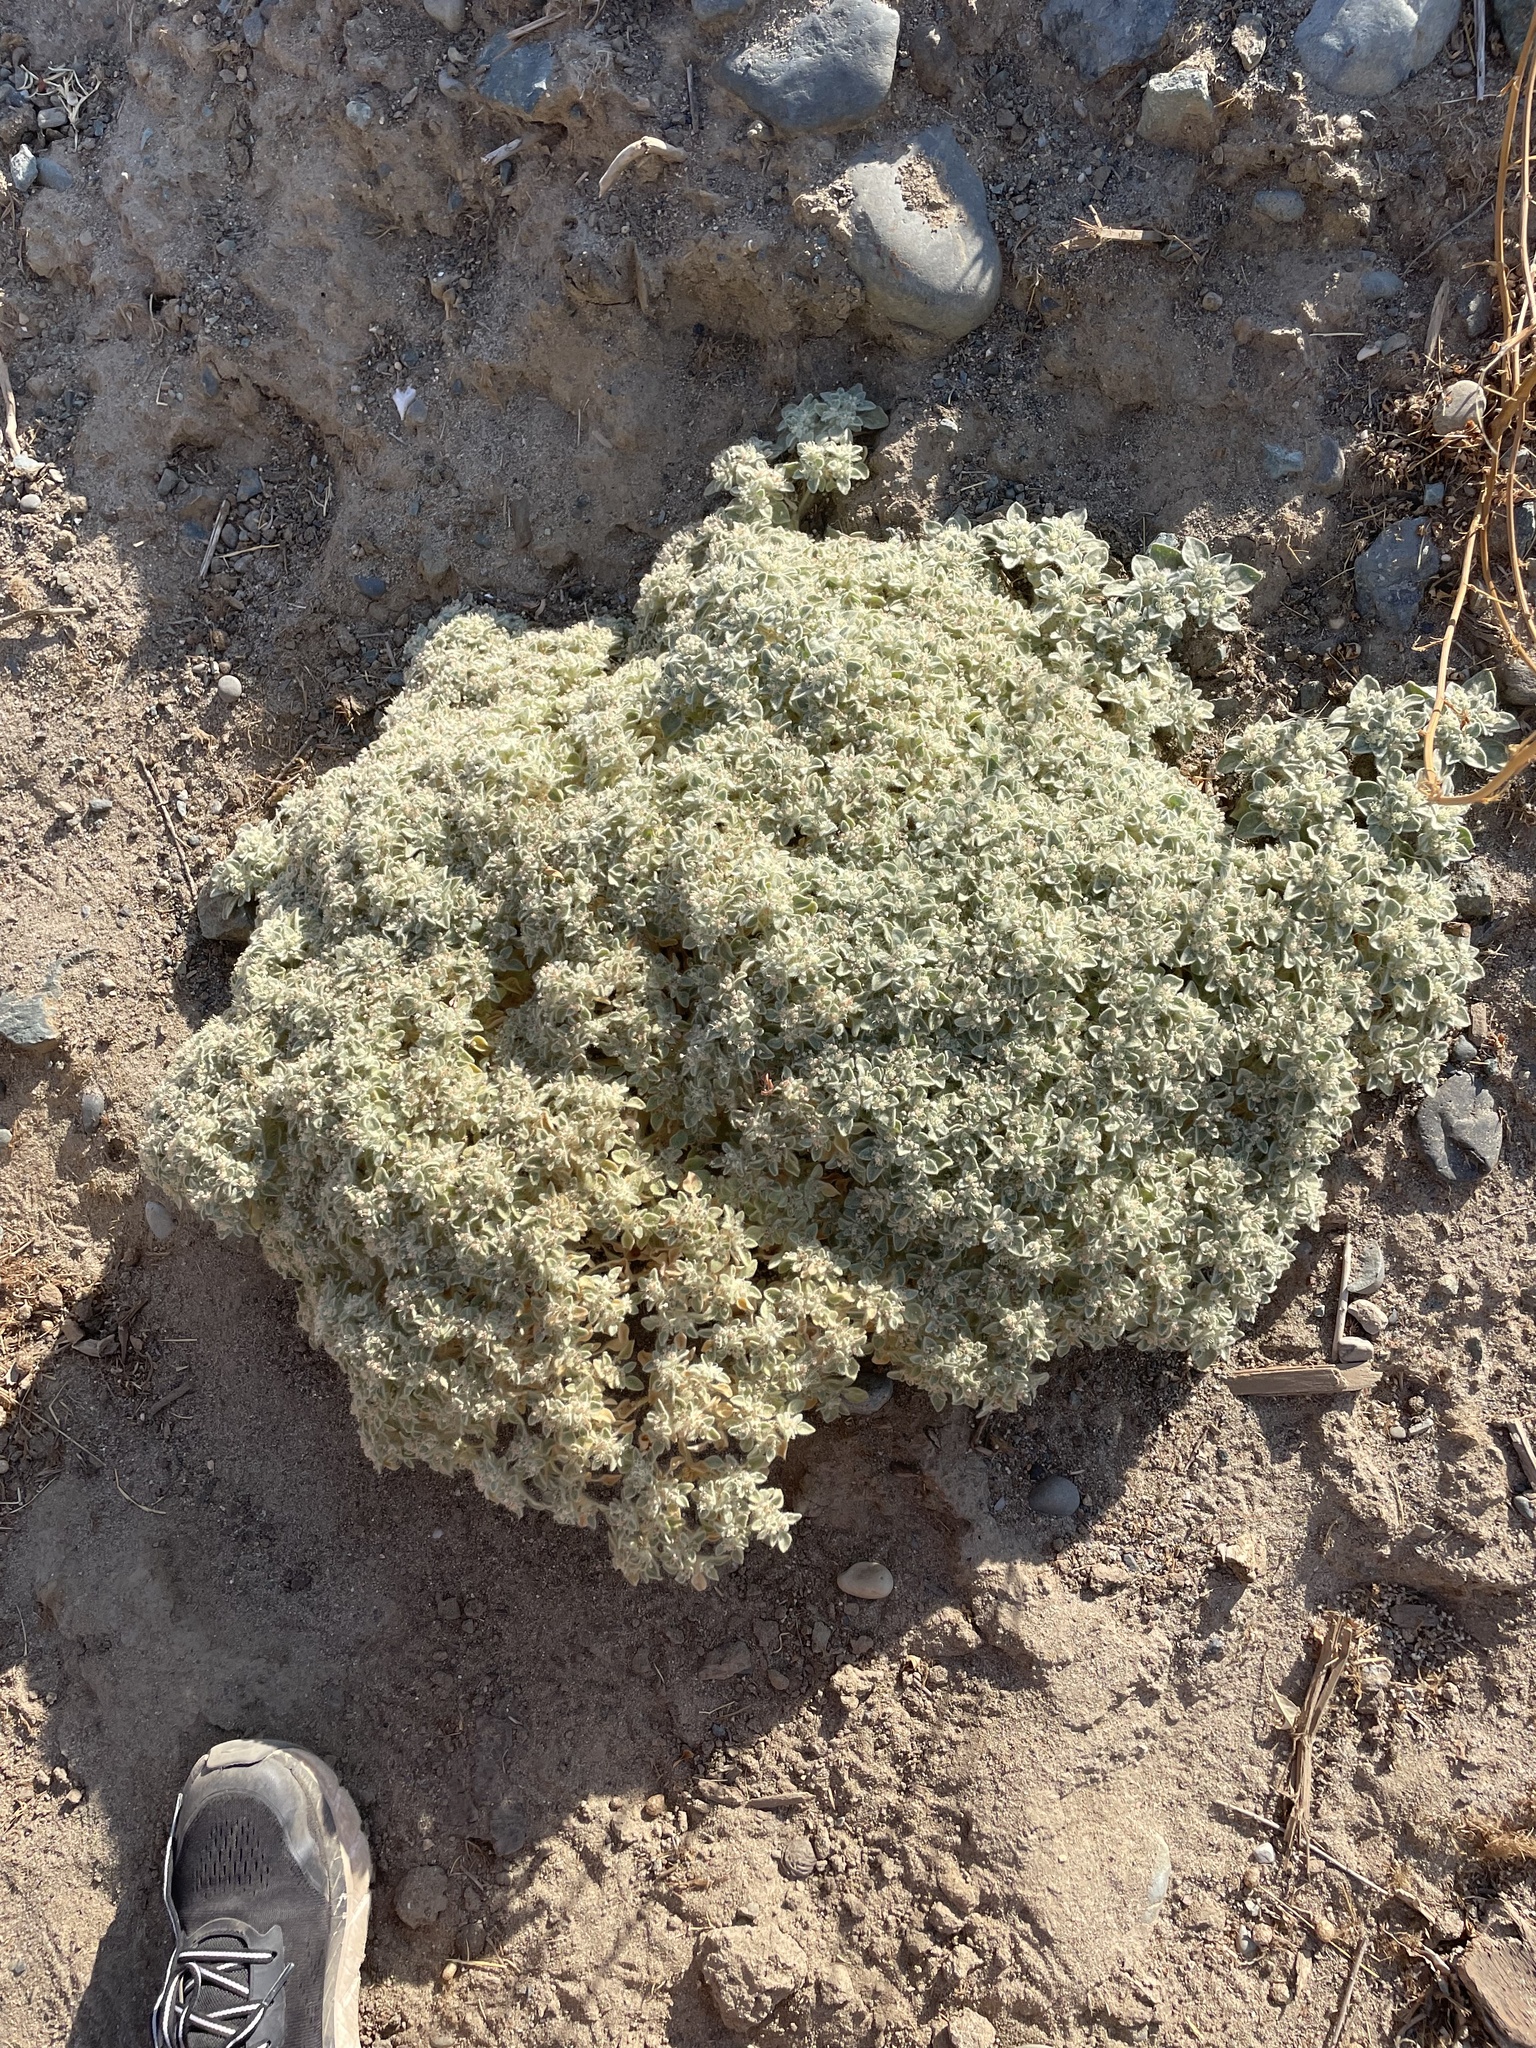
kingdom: Plantae
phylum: Tracheophyta
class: Magnoliopsida
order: Malpighiales
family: Euphorbiaceae
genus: Croton
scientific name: Croton setiger
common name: Dove weed
